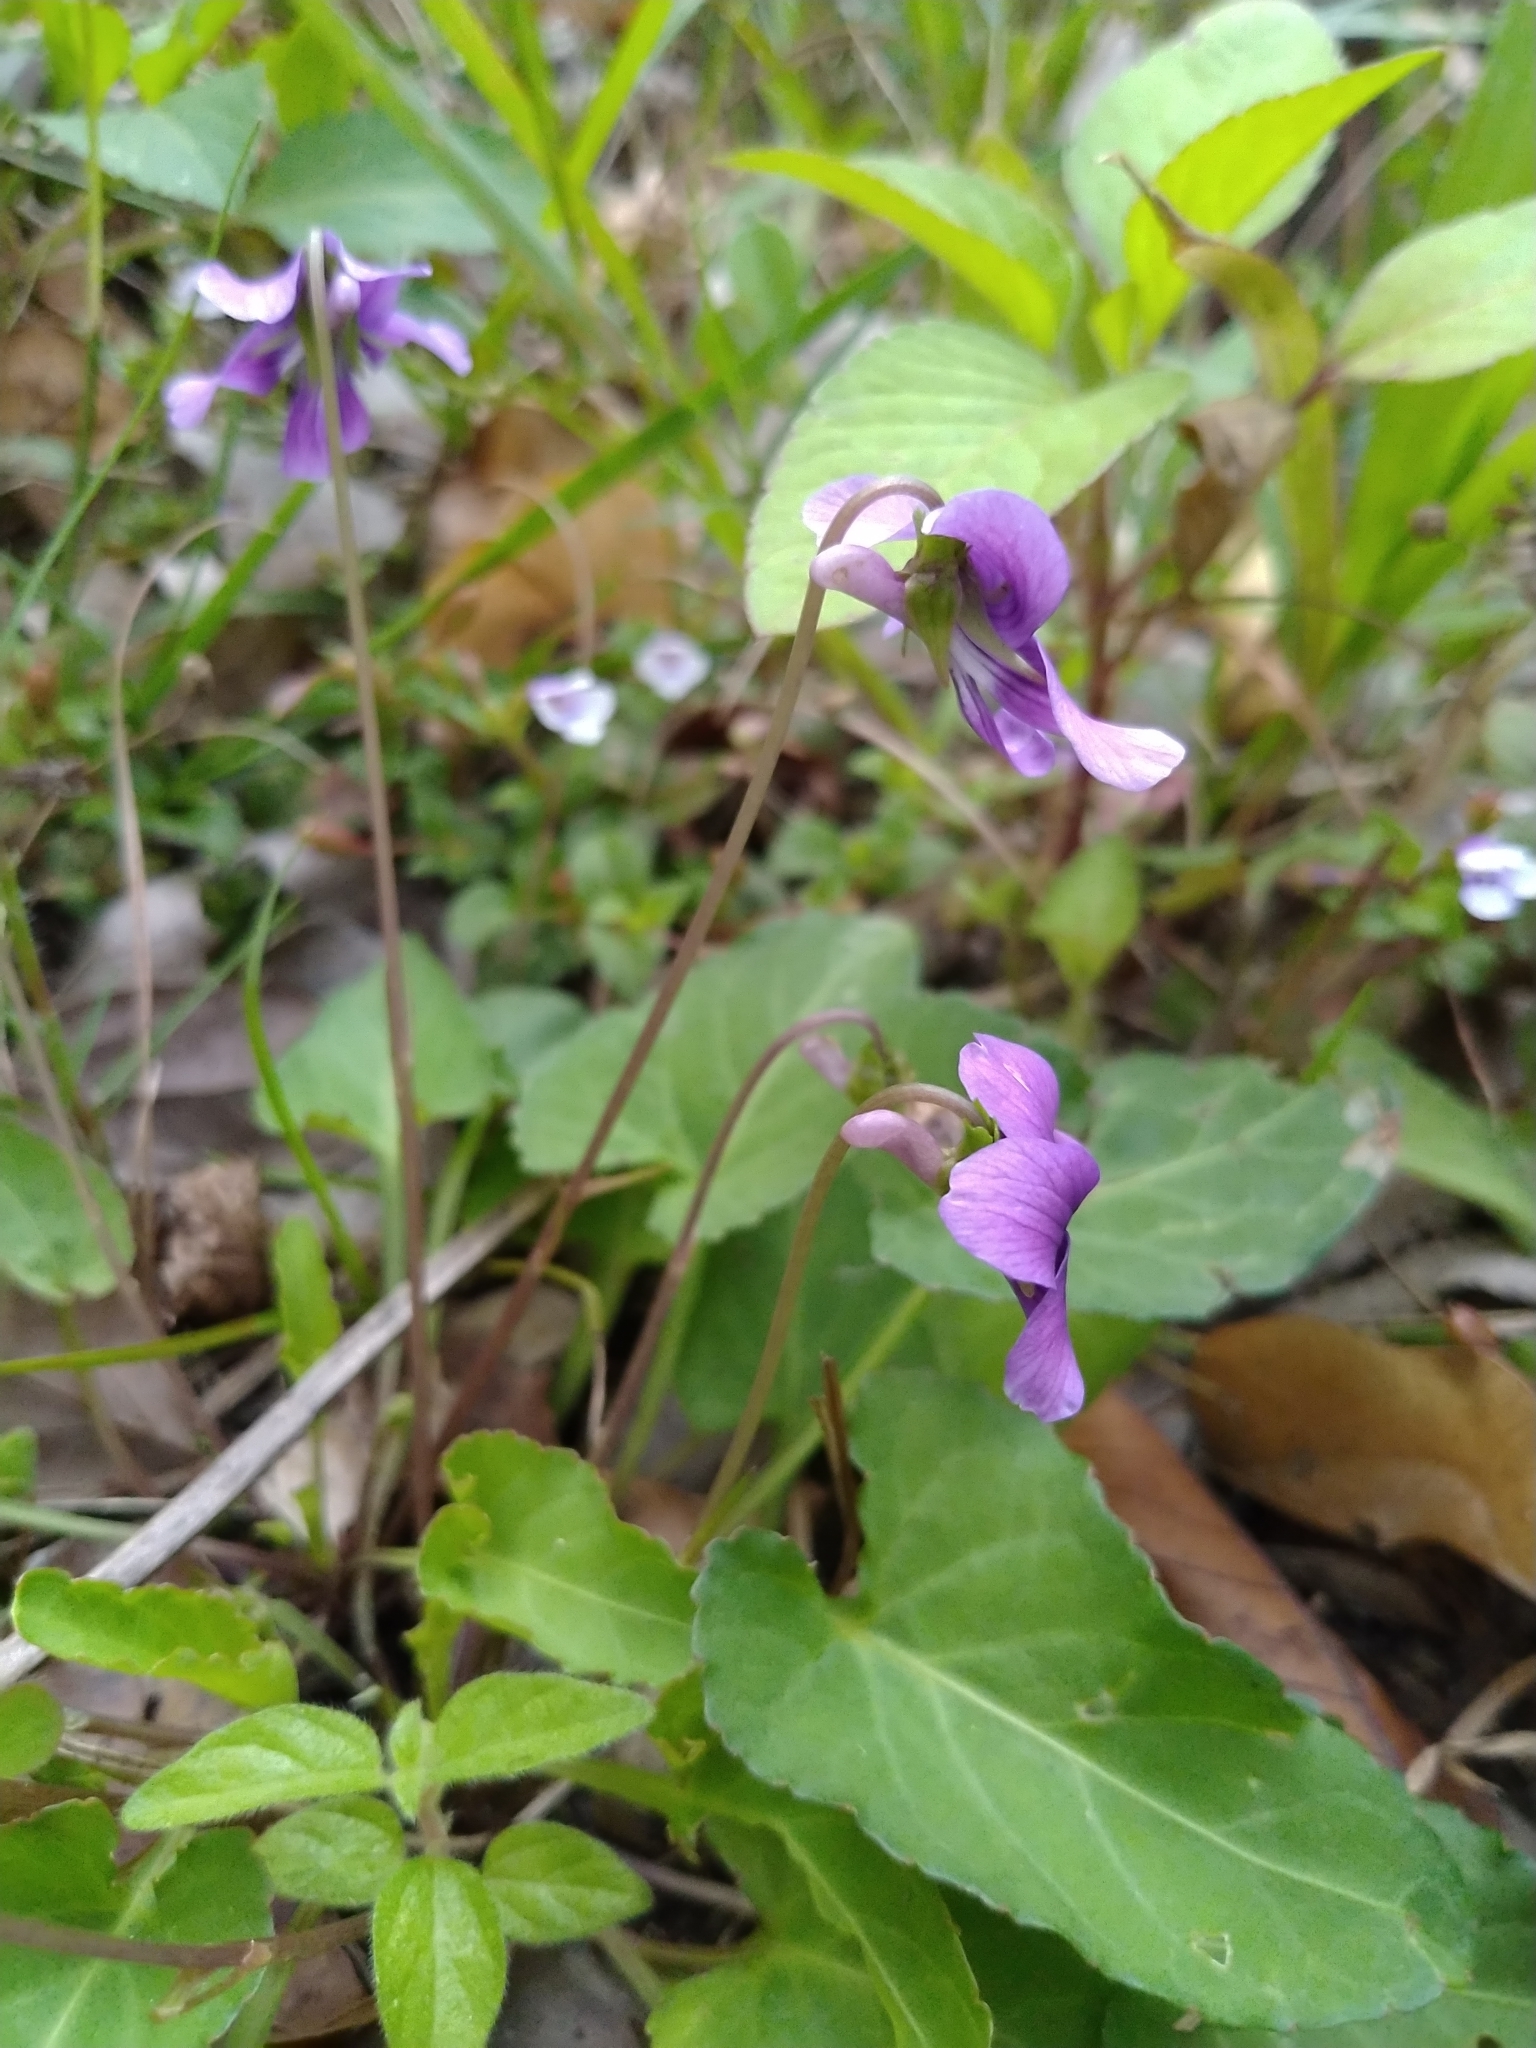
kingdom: Plantae
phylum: Tracheophyta
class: Magnoliopsida
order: Malpighiales
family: Violaceae
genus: Viola
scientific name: Viola
